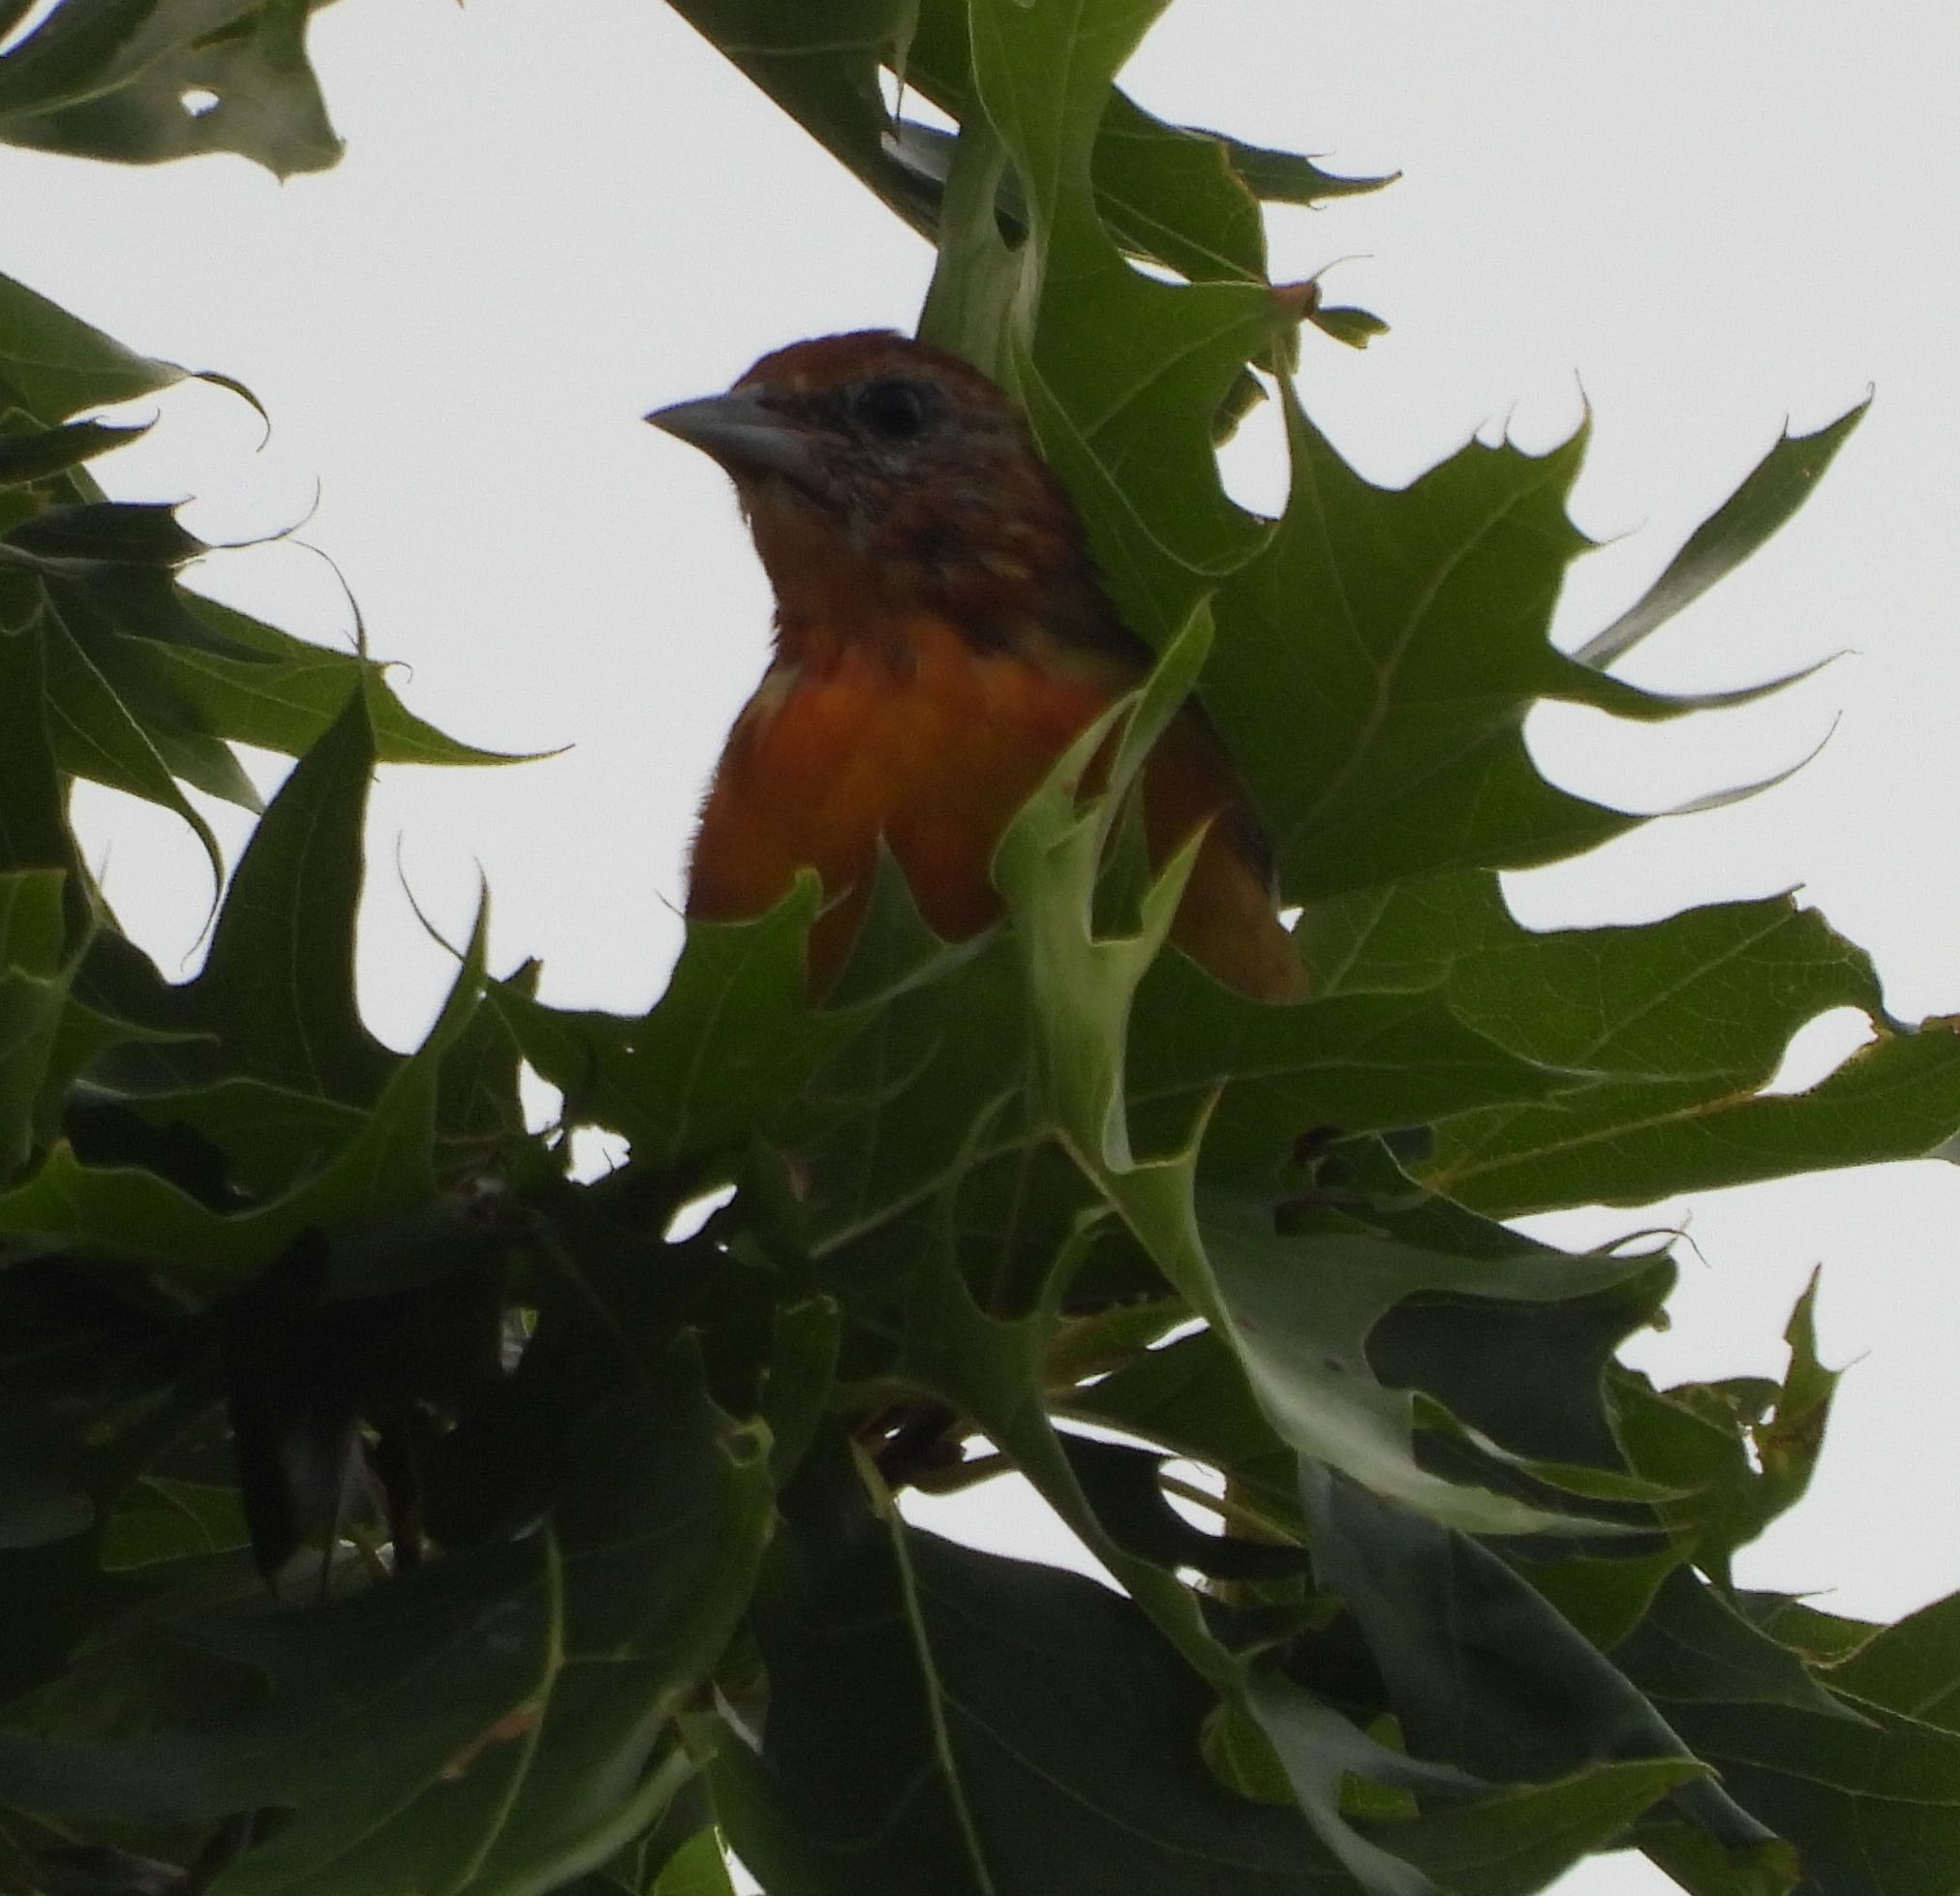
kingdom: Animalia
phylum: Chordata
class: Aves
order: Passeriformes
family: Icteridae
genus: Icterus
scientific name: Icterus galbula
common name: Baltimore oriole
